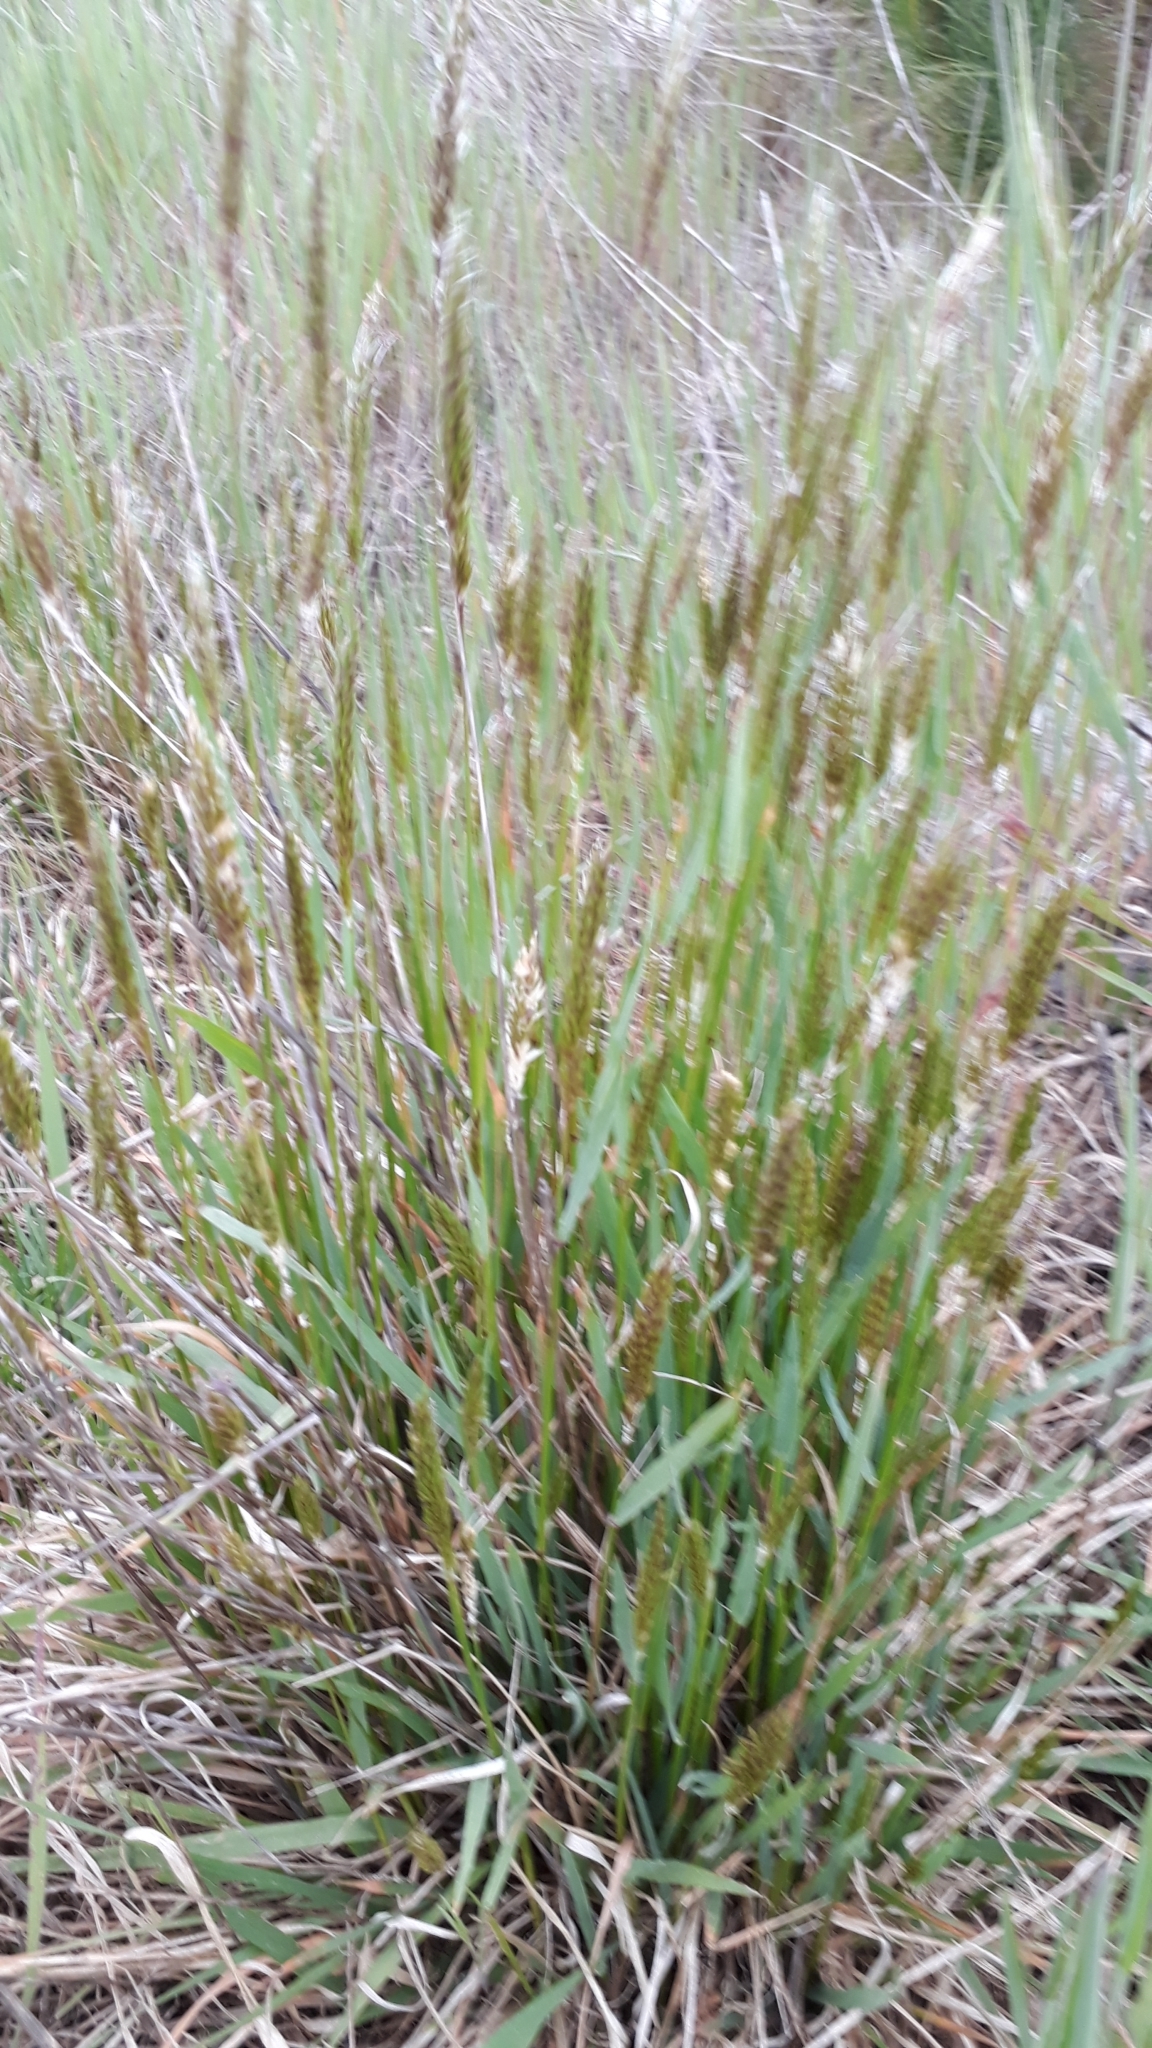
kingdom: Plantae
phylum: Tracheophyta
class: Liliopsida
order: Poales
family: Poaceae
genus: Anthoxanthum
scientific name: Anthoxanthum odoratum
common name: Sweet vernalgrass
